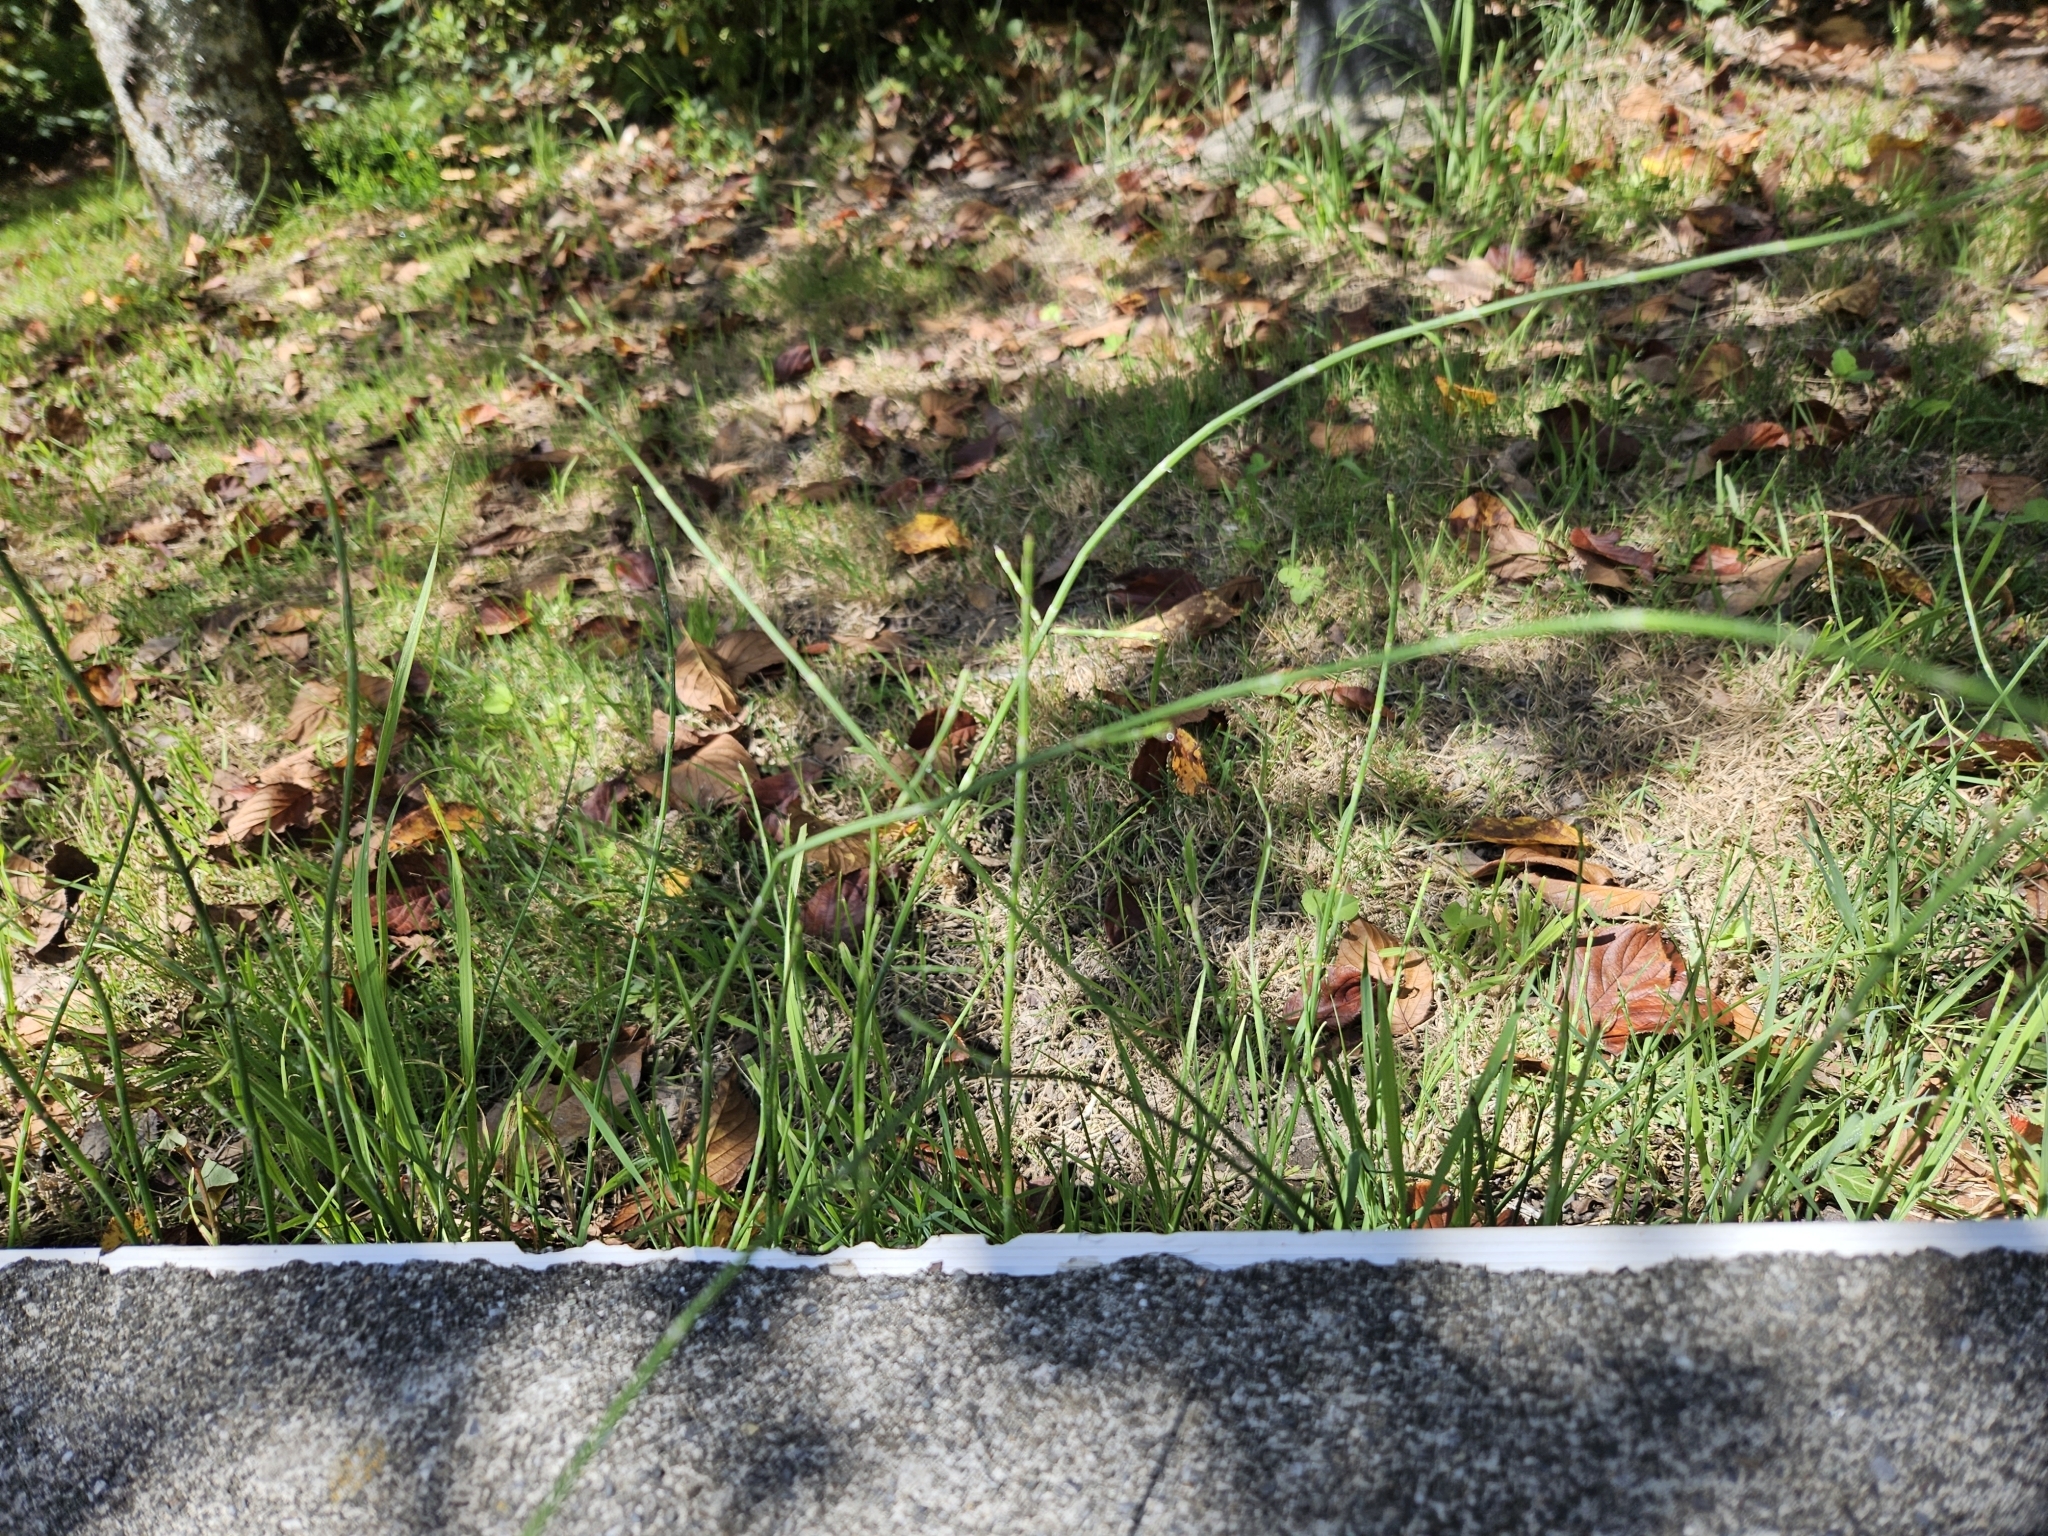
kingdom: Plantae
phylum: Tracheophyta
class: Polypodiopsida
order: Equisetales
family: Equisetaceae
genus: Equisetum
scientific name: Equisetum ramosissimum
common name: Branched horsetail
